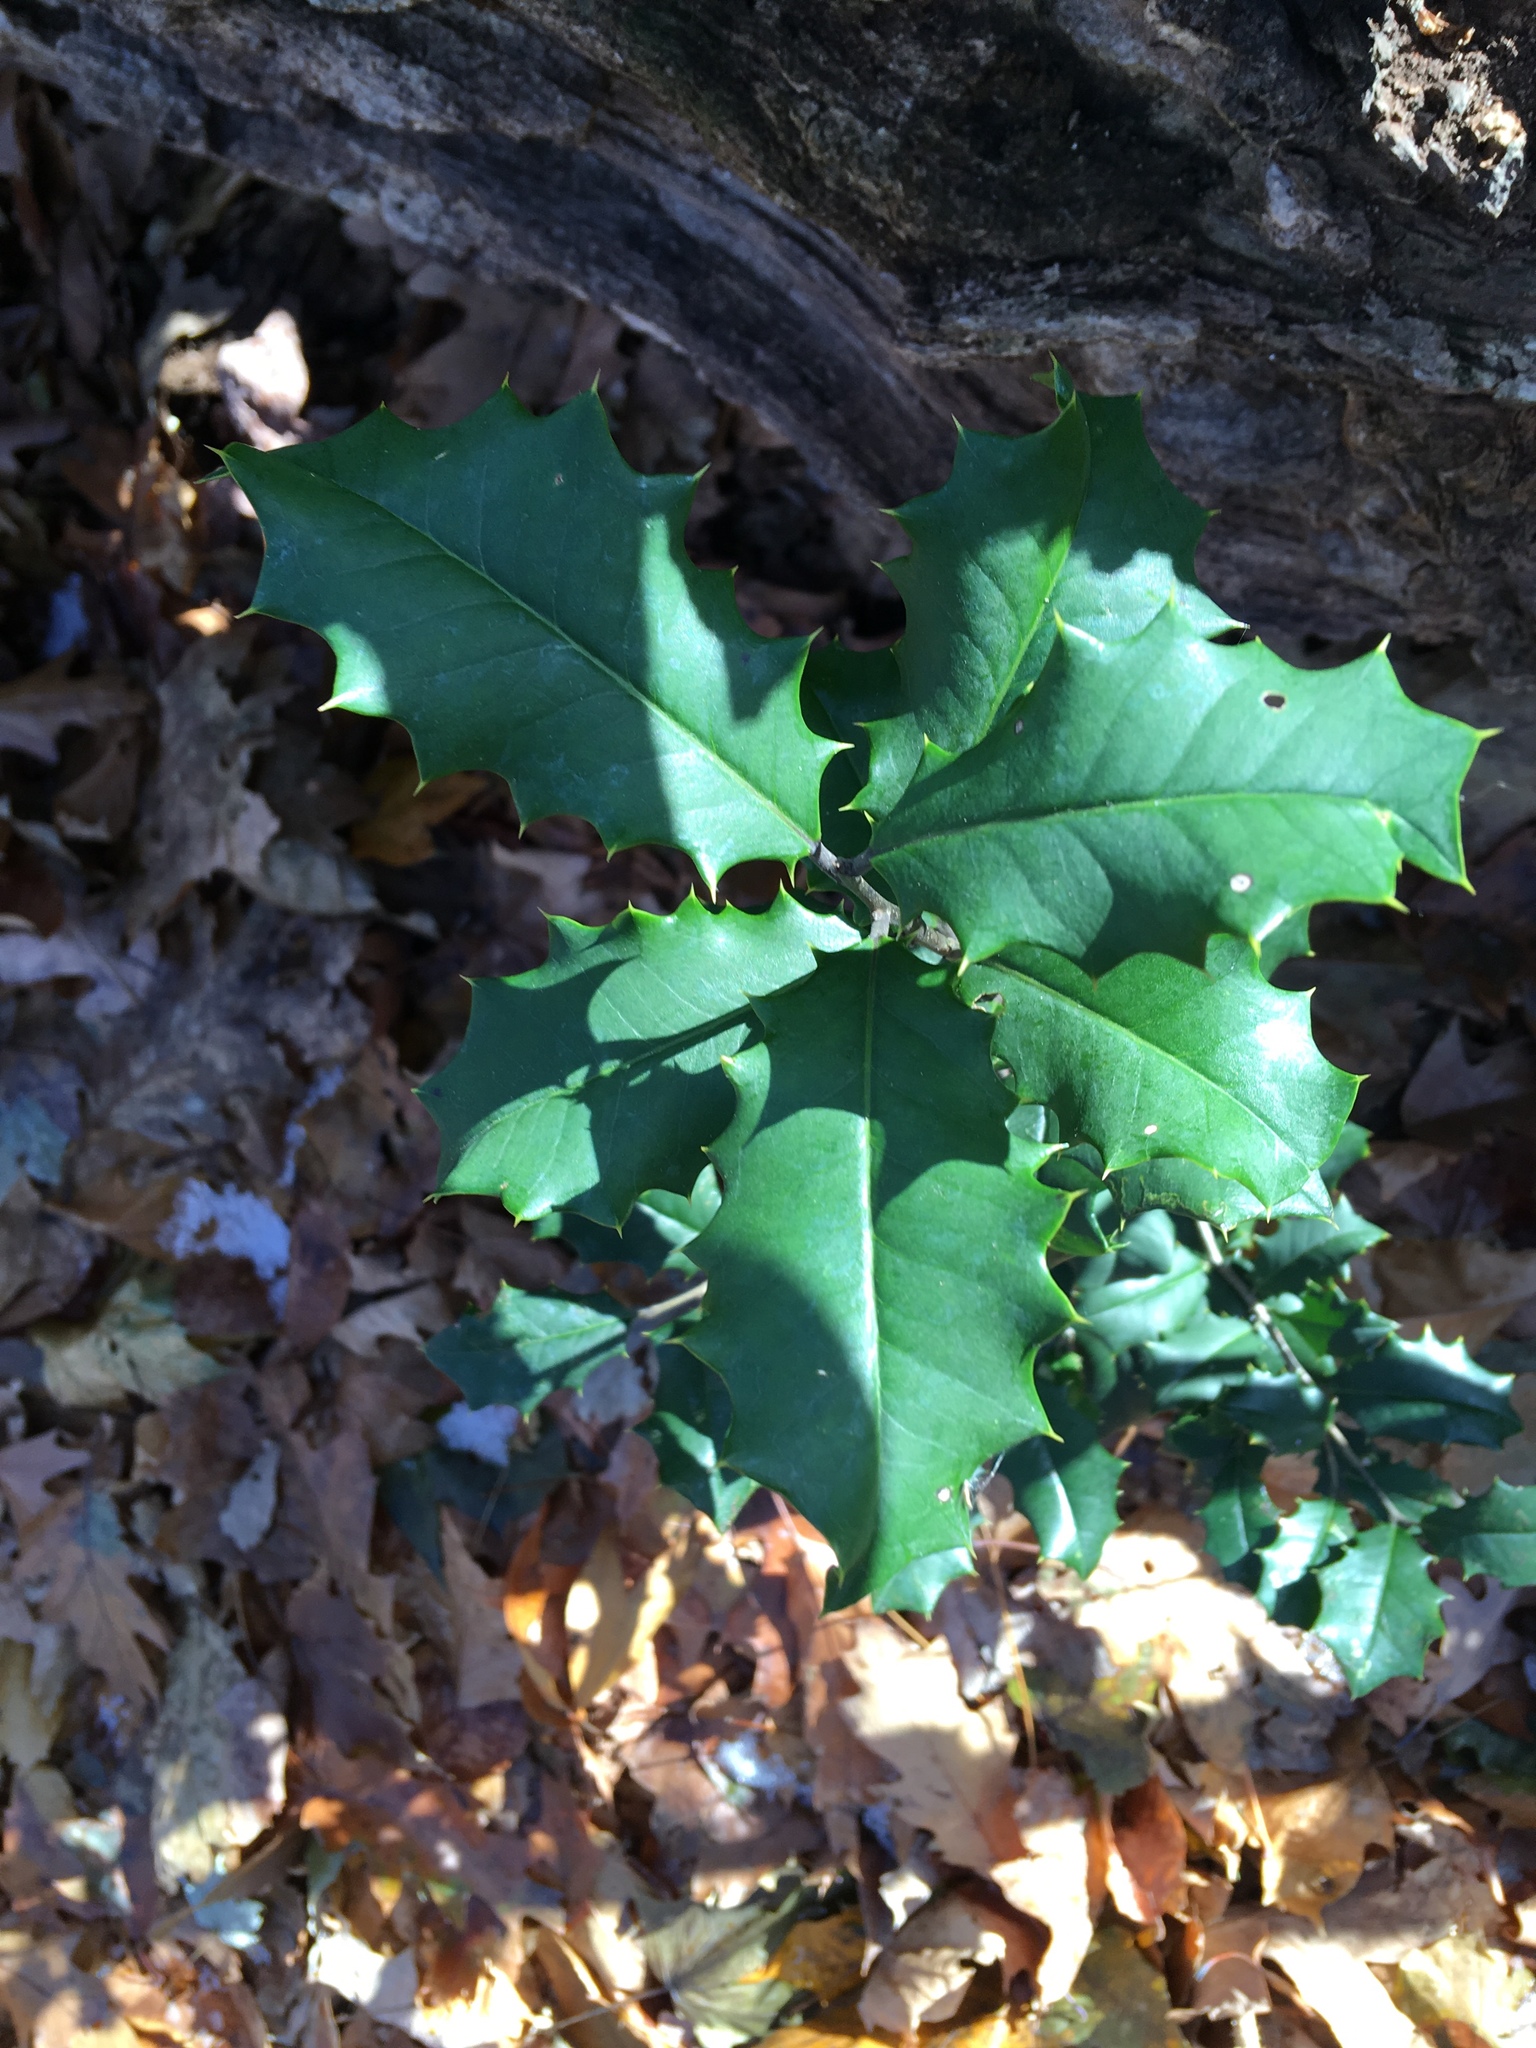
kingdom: Plantae
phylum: Tracheophyta
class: Magnoliopsida
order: Aquifoliales
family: Aquifoliaceae
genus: Ilex
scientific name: Ilex opaca
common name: American holly
